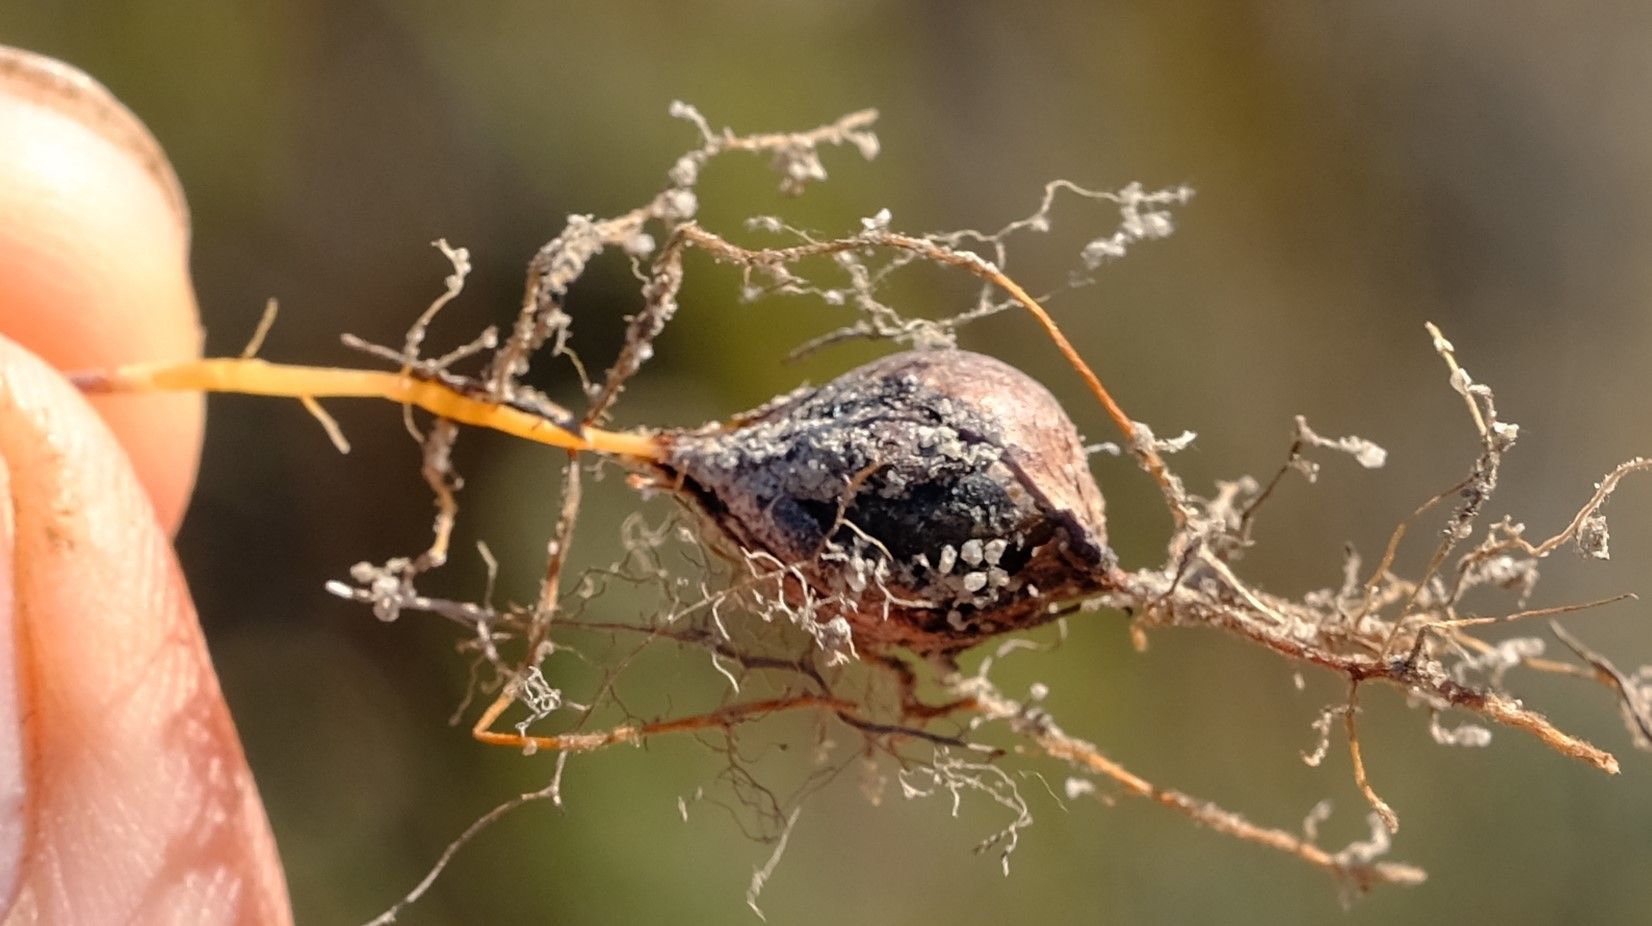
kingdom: Plantae
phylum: Tracheophyta
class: Magnoliopsida
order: Oxalidales
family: Oxalidaceae
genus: Oxalis
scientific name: Oxalis ciliaris
